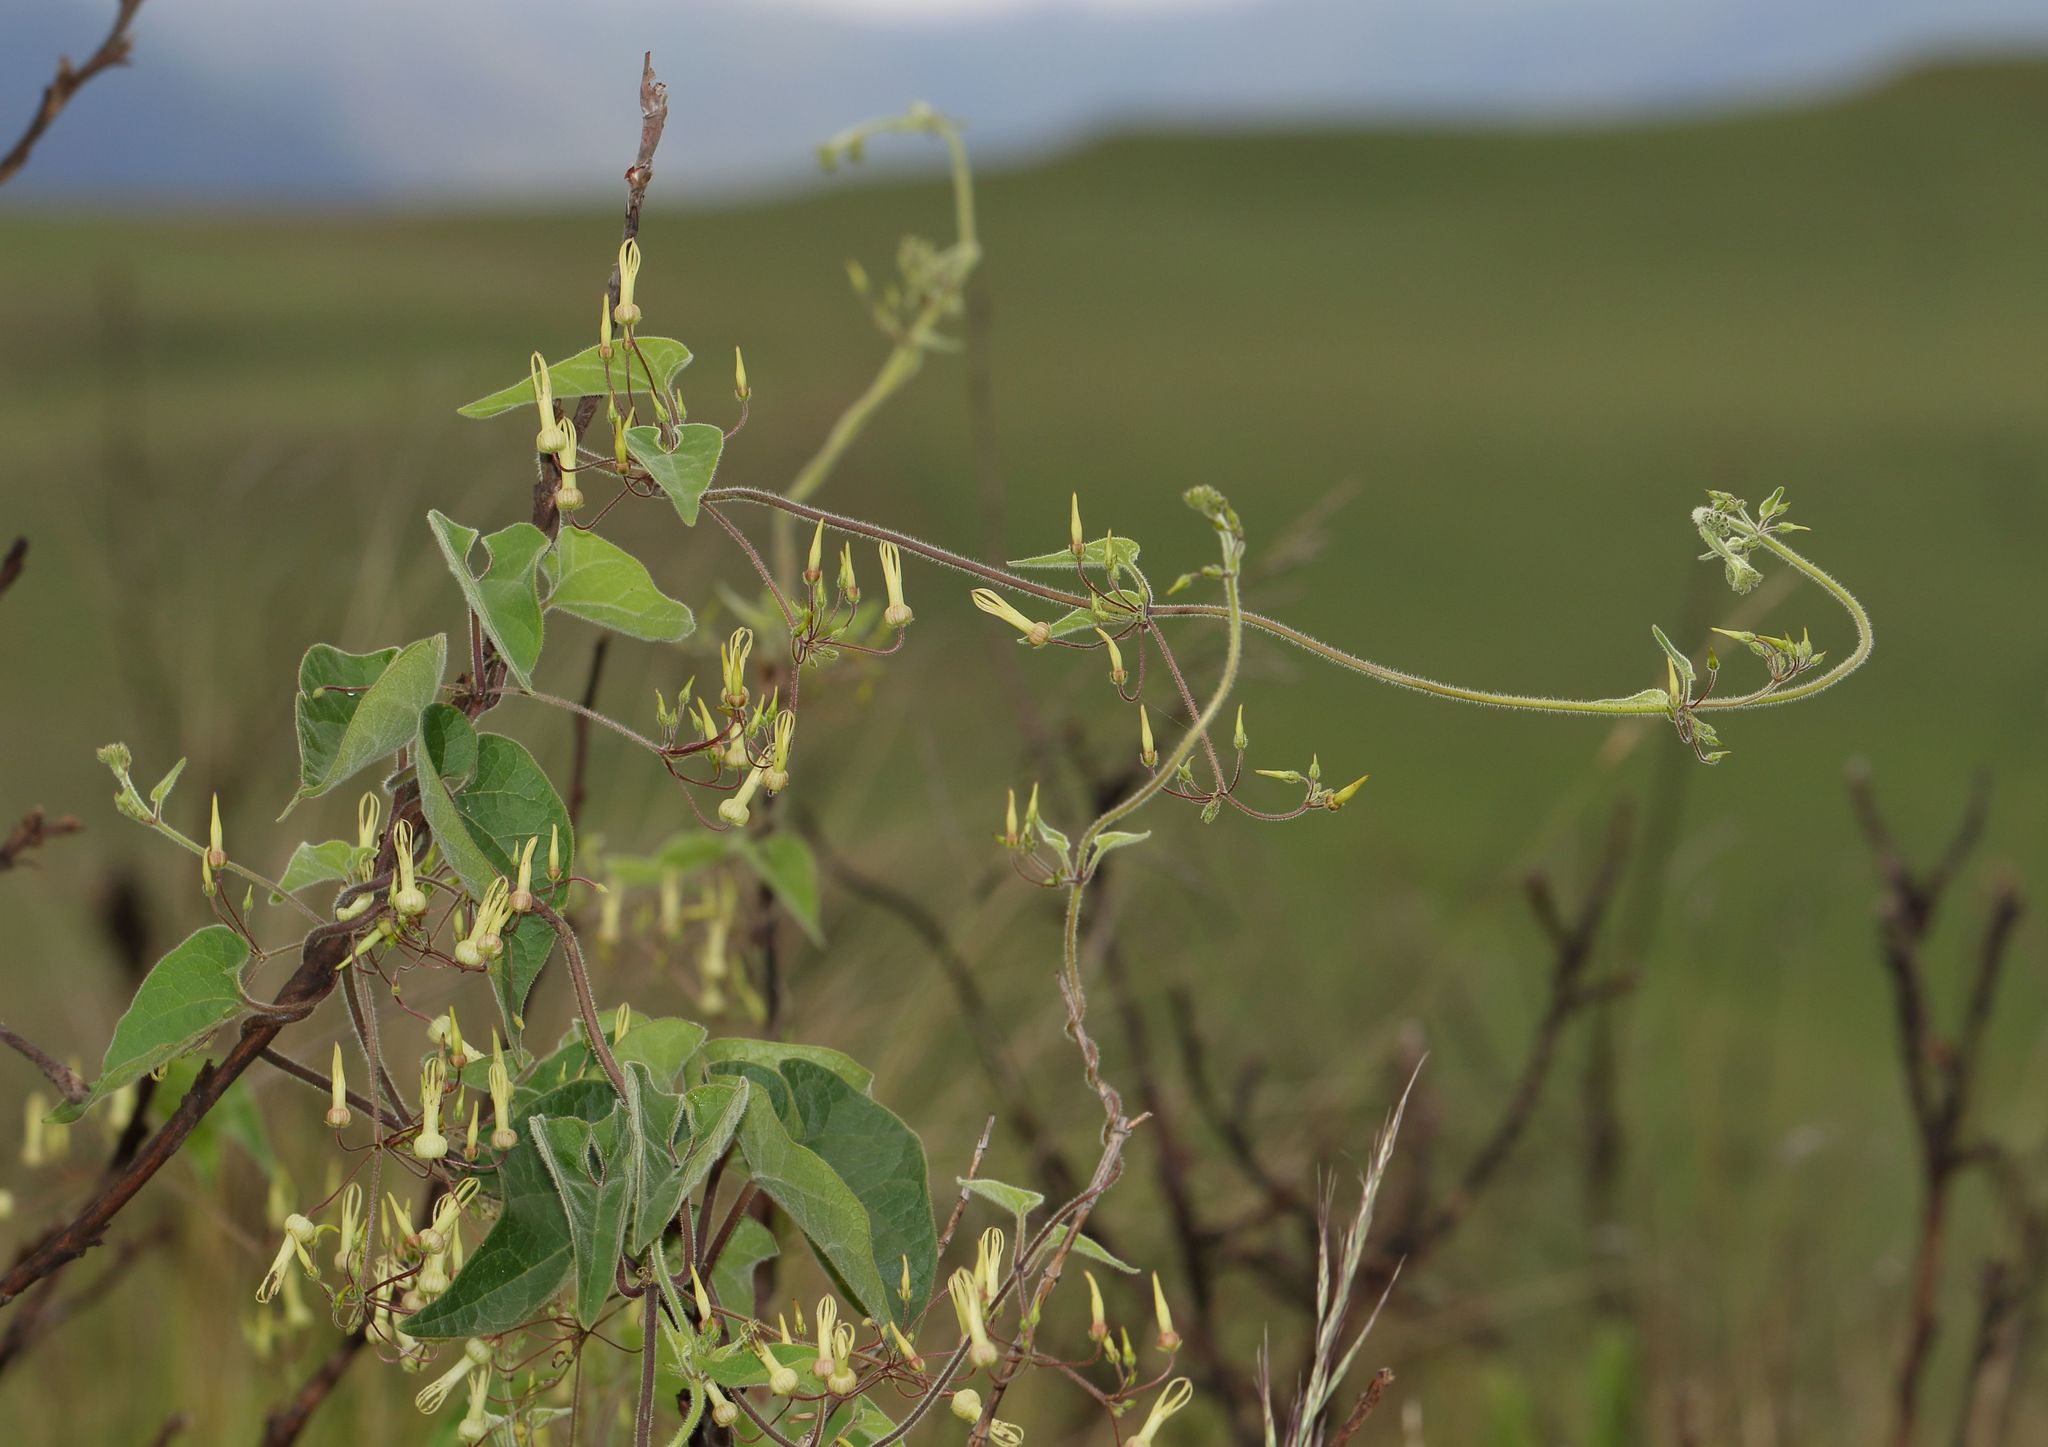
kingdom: Plantae
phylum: Tracheophyta
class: Magnoliopsida
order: Gentianales
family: Apocynaceae
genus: Riocreuxia
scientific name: Riocreuxia torulosa
